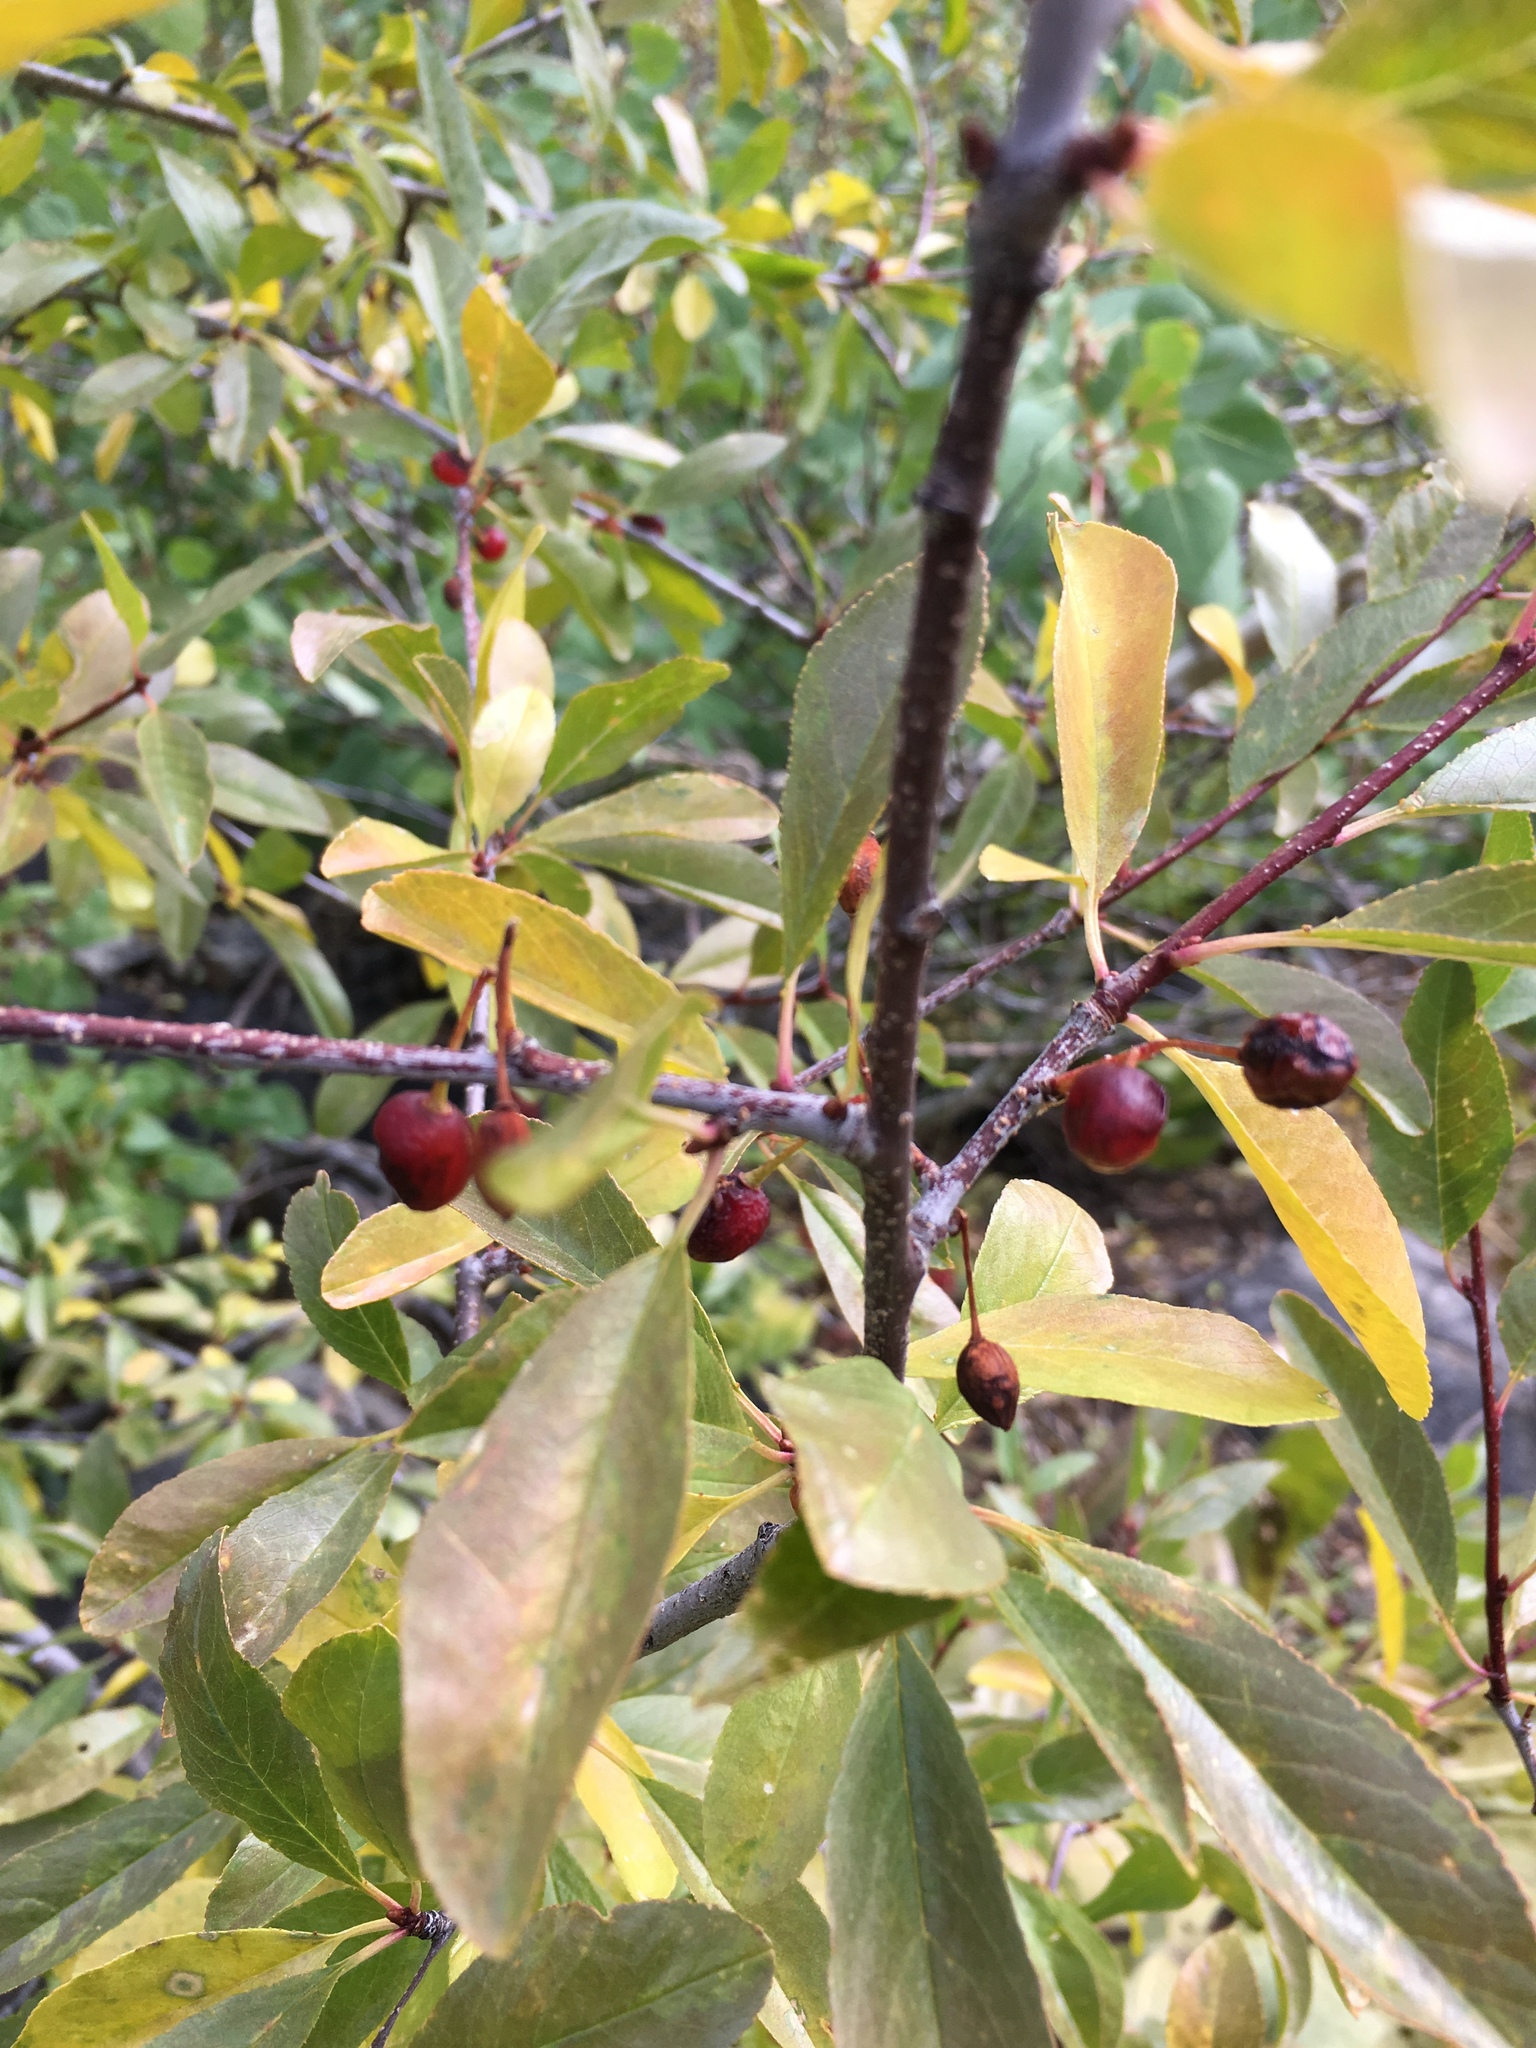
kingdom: Plantae
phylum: Tracheophyta
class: Magnoliopsida
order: Rosales
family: Rosaceae
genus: Prunus
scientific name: Prunus emarginata
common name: Bitter cherry
